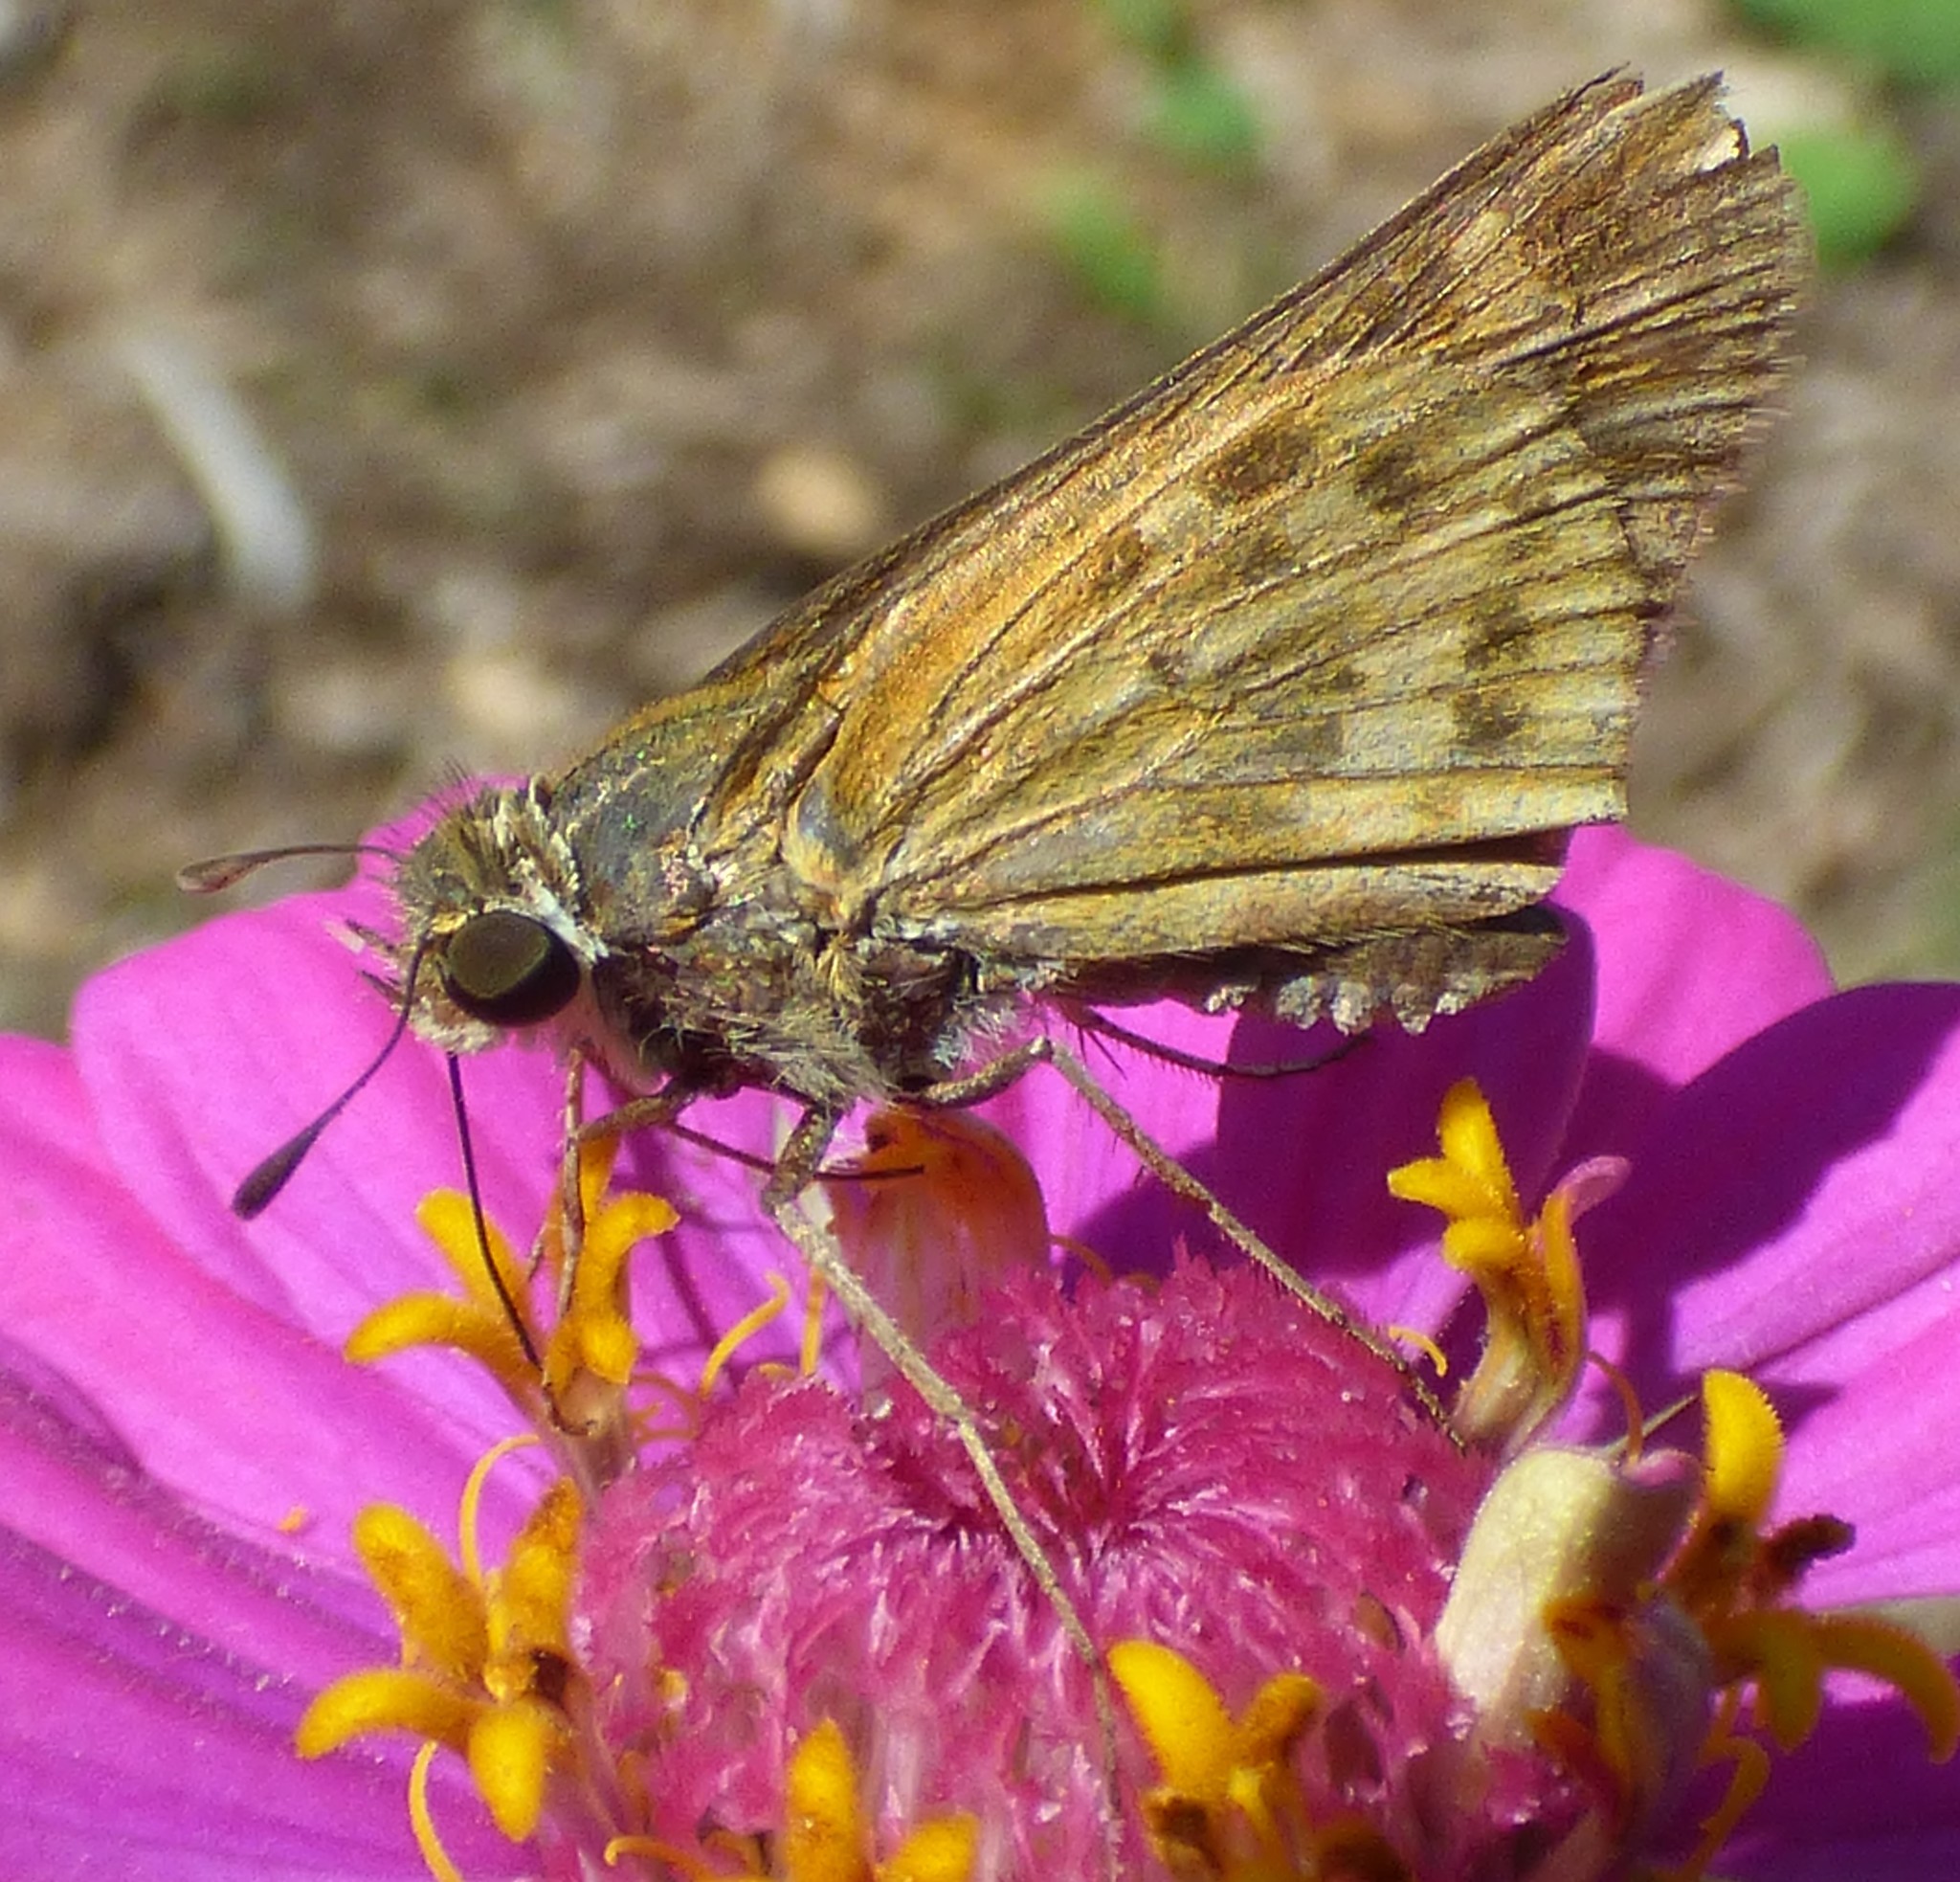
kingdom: Animalia
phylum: Arthropoda
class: Insecta
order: Lepidoptera
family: Hesperiidae
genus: Atalopedes
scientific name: Atalopedes
